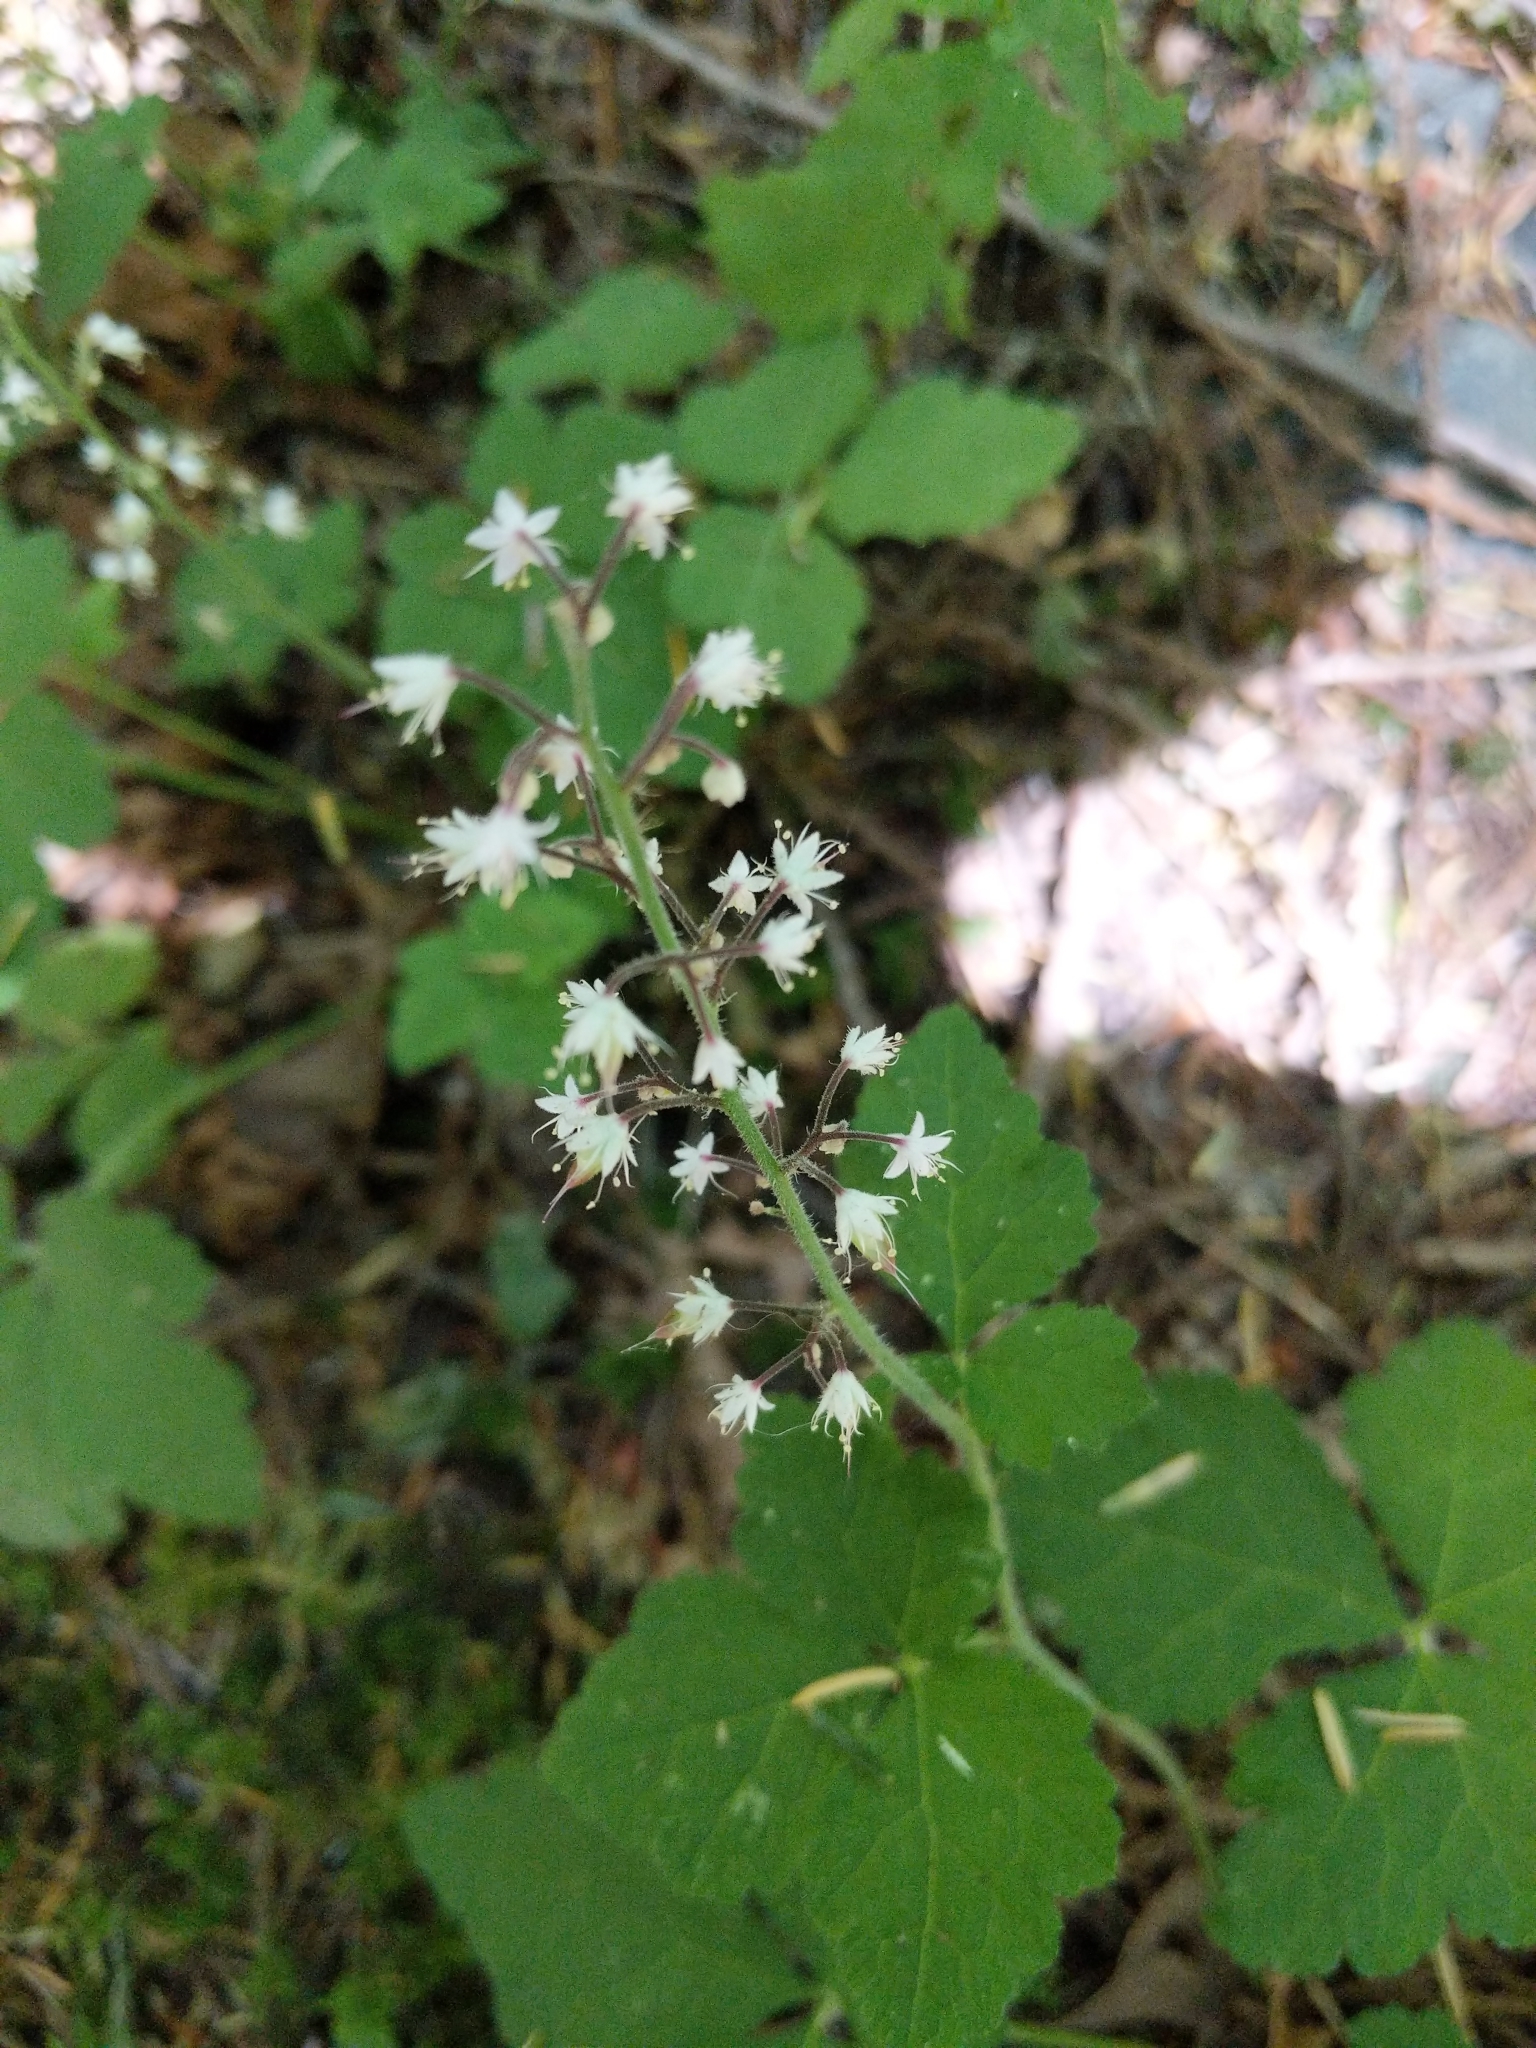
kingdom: Plantae
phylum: Tracheophyta
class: Magnoliopsida
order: Saxifragales
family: Saxifragaceae
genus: Tiarella
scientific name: Tiarella trifoliata
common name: Sugar-scoop
